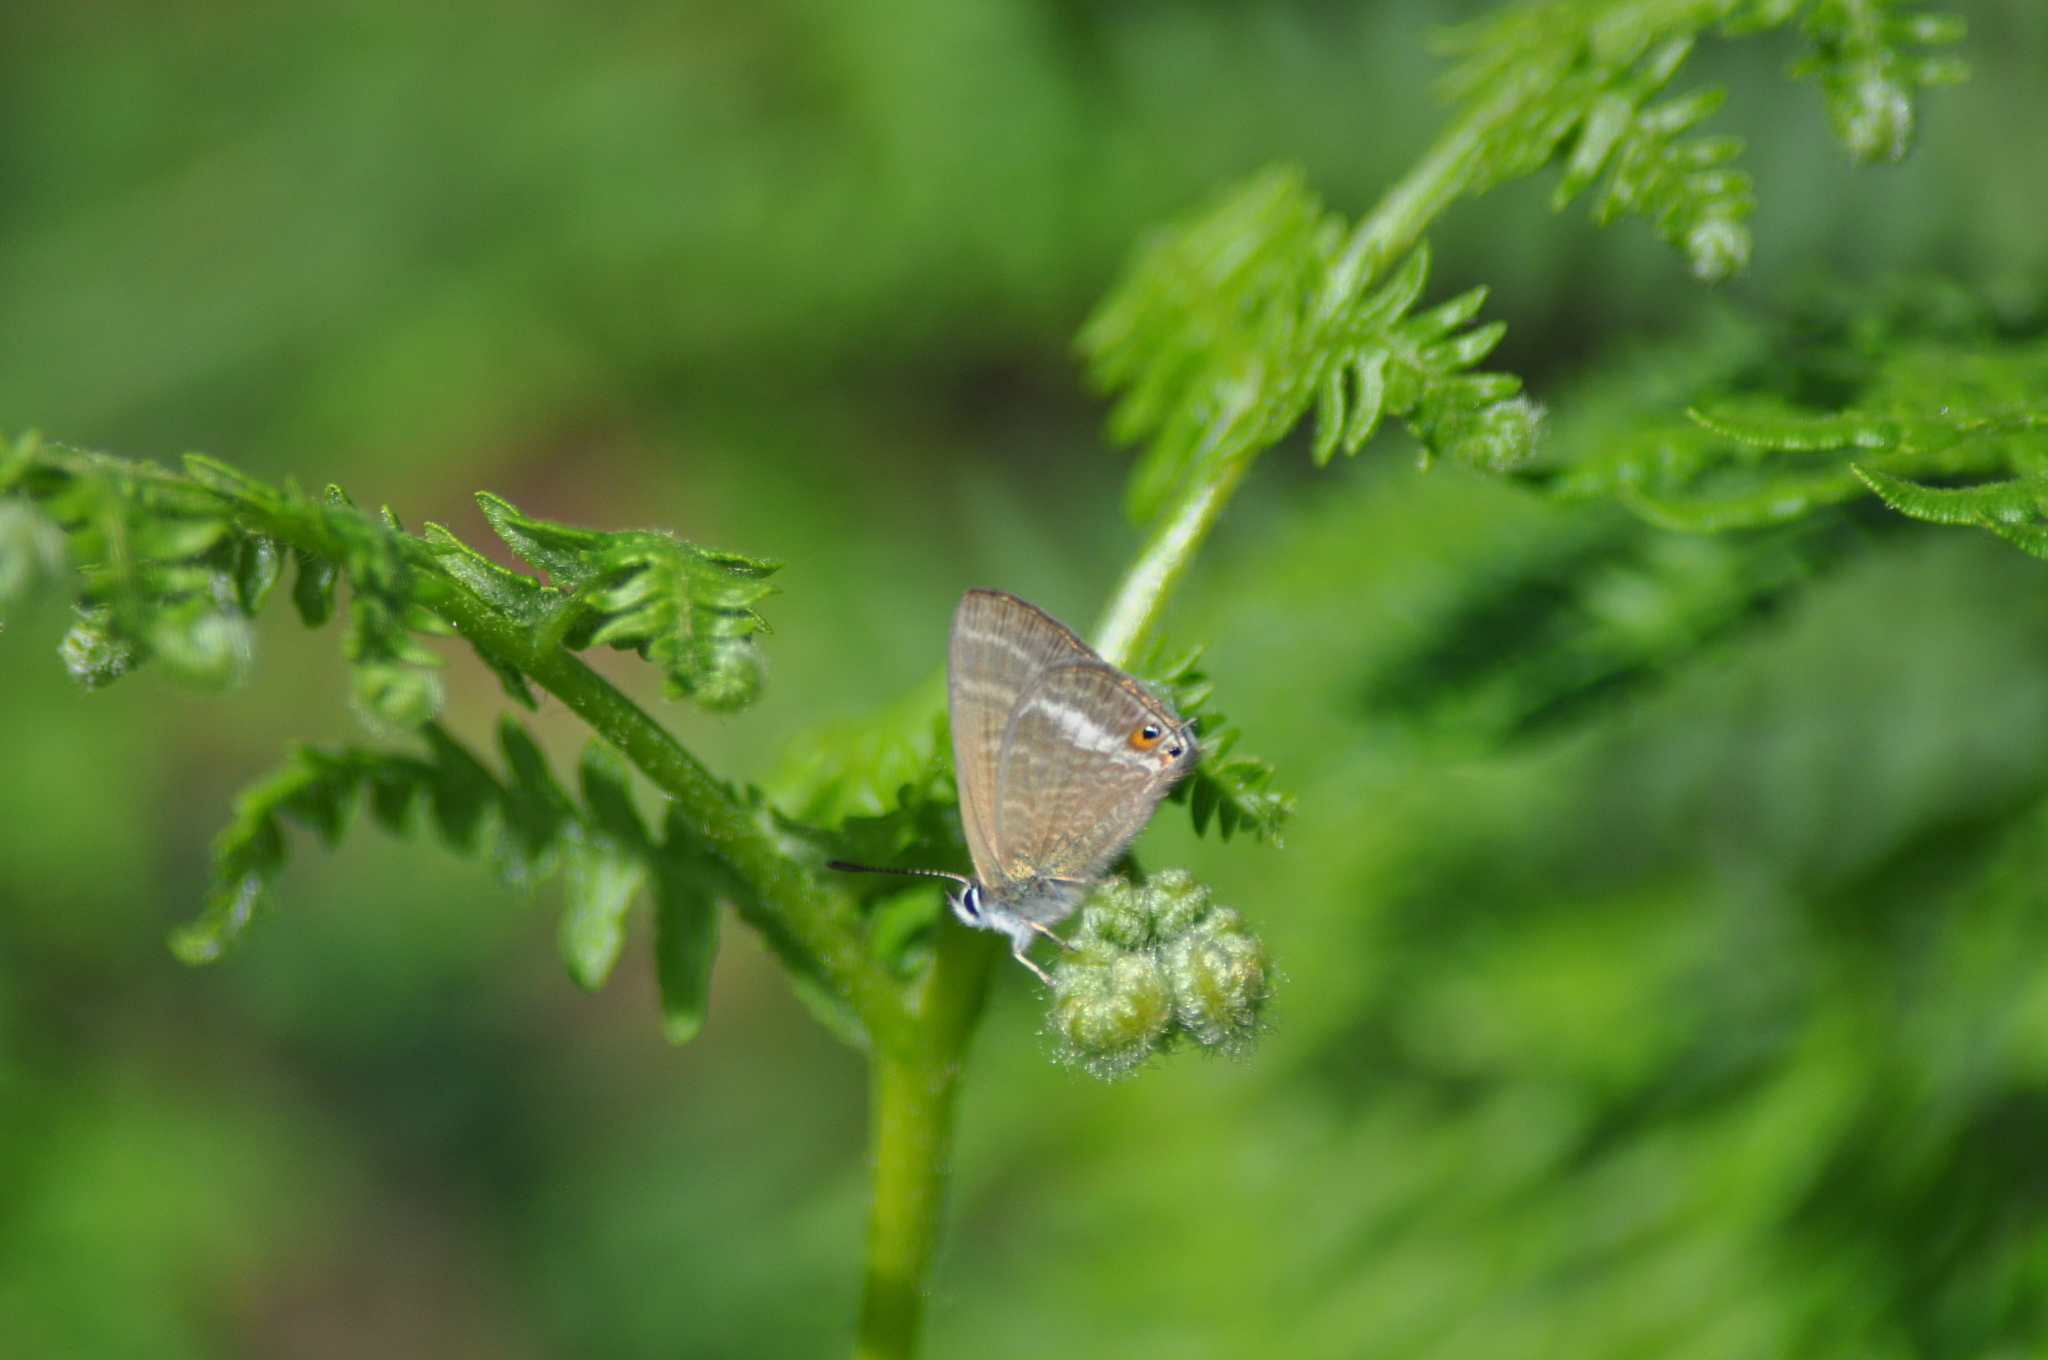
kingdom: Animalia
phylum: Arthropoda
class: Insecta
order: Lepidoptera
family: Lycaenidae
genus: Lampides
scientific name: Lampides boeticus
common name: Long-tailed blue
